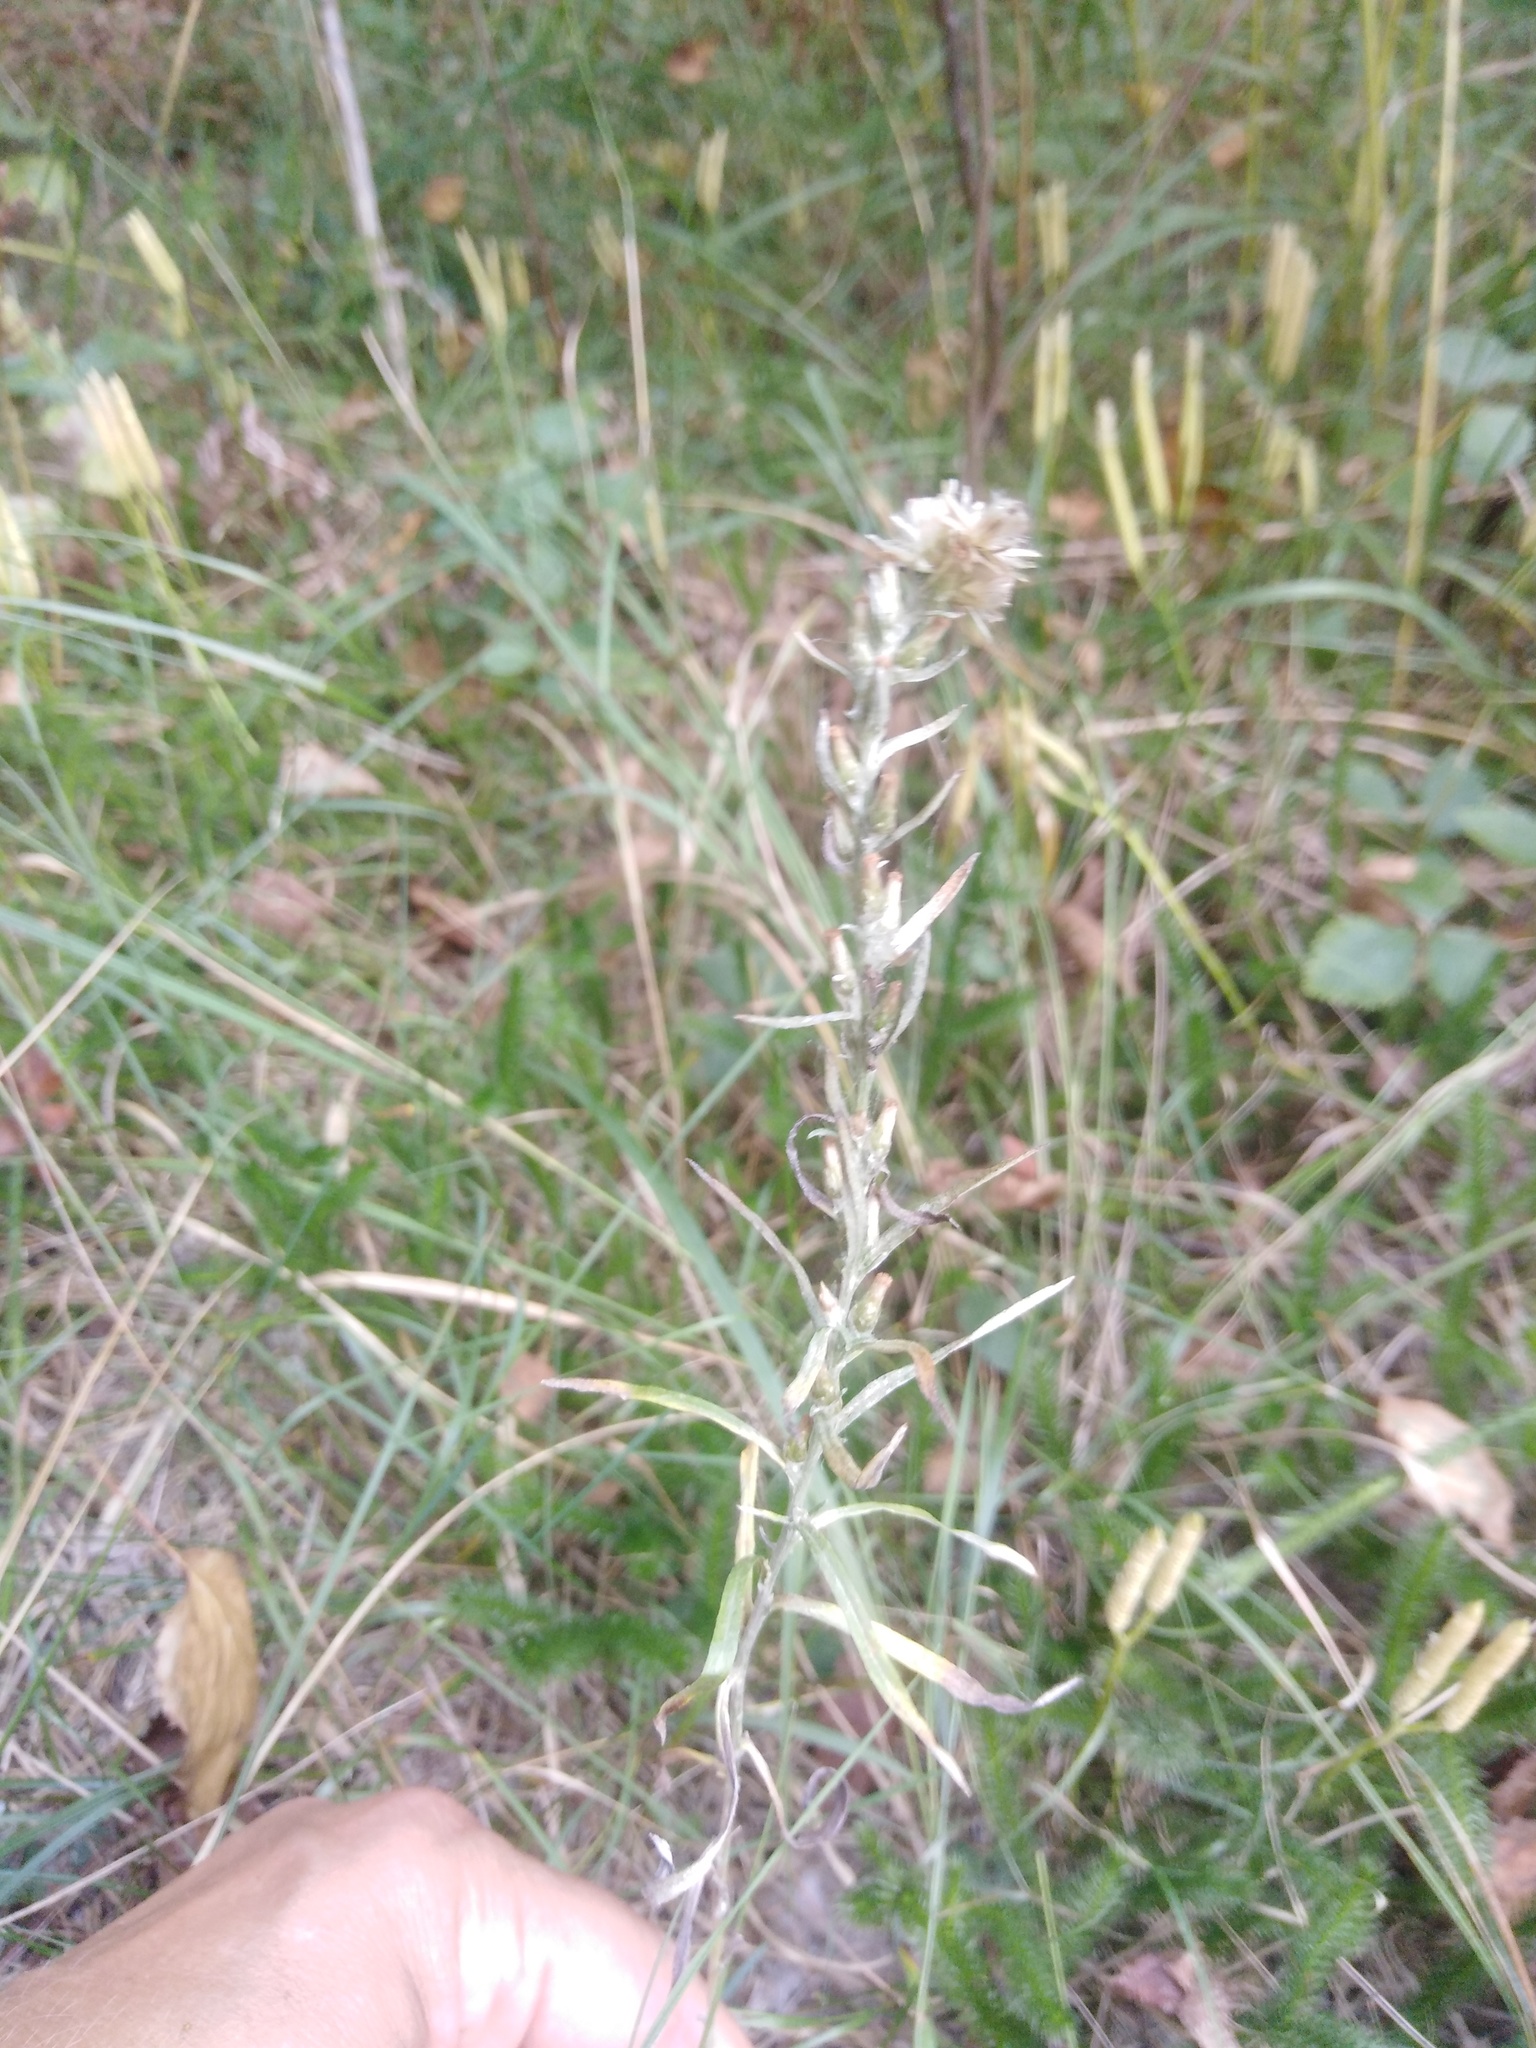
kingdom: Plantae
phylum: Tracheophyta
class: Magnoliopsida
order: Asterales
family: Asteraceae
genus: Omalotheca
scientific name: Omalotheca sylvatica
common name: Heath cudweed
